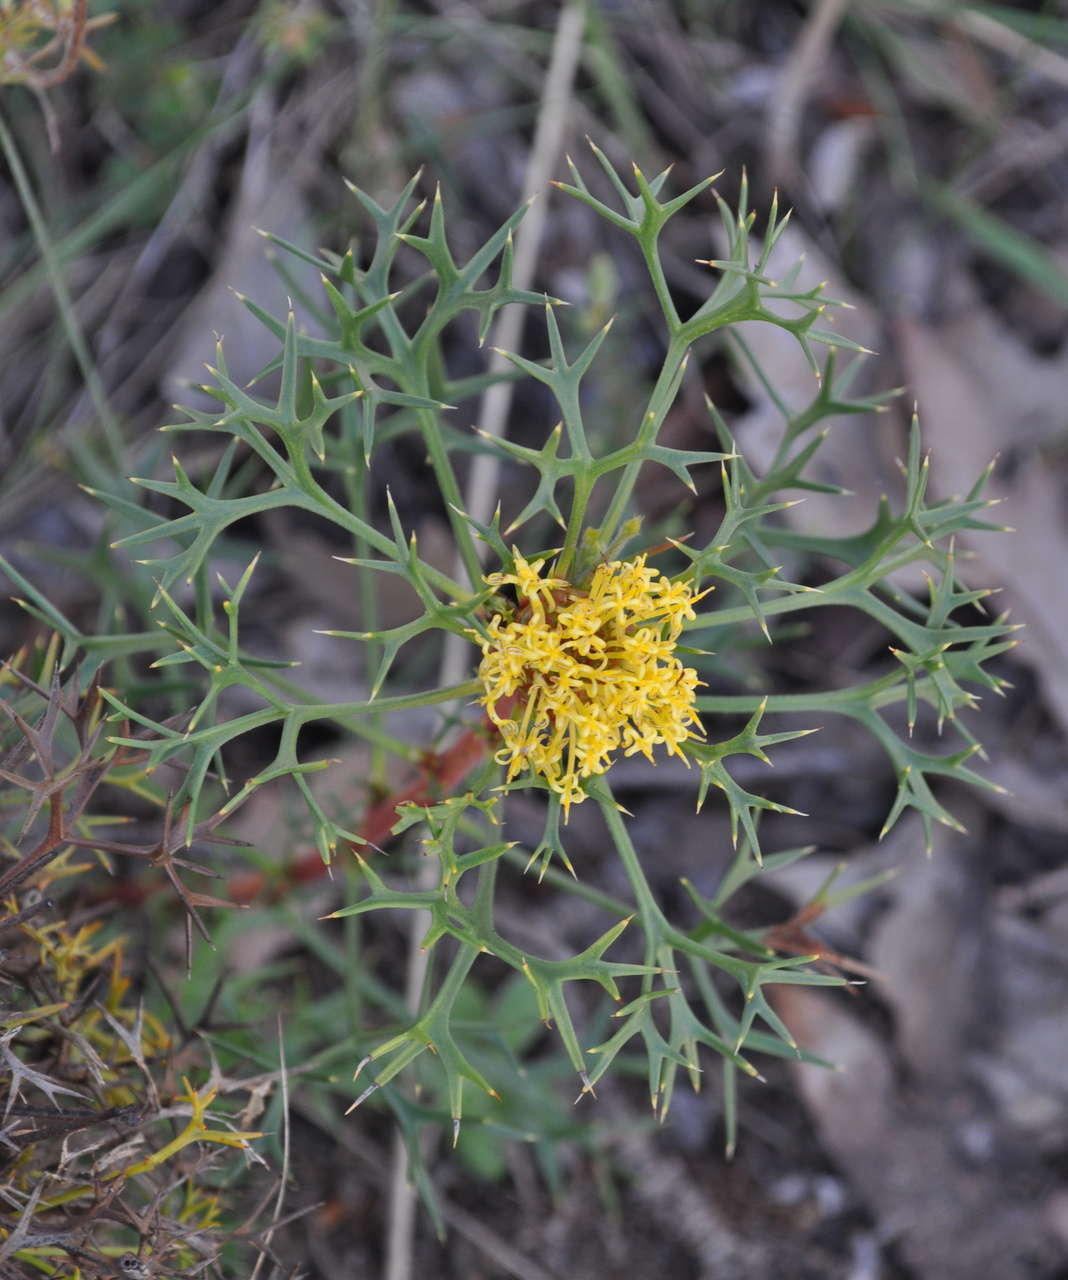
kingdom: Plantae
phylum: Tracheophyta
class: Magnoliopsida
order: Proteales
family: Proteaceae
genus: Isopogon
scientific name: Isopogon ceratophyllus
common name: Horny cone-bush
